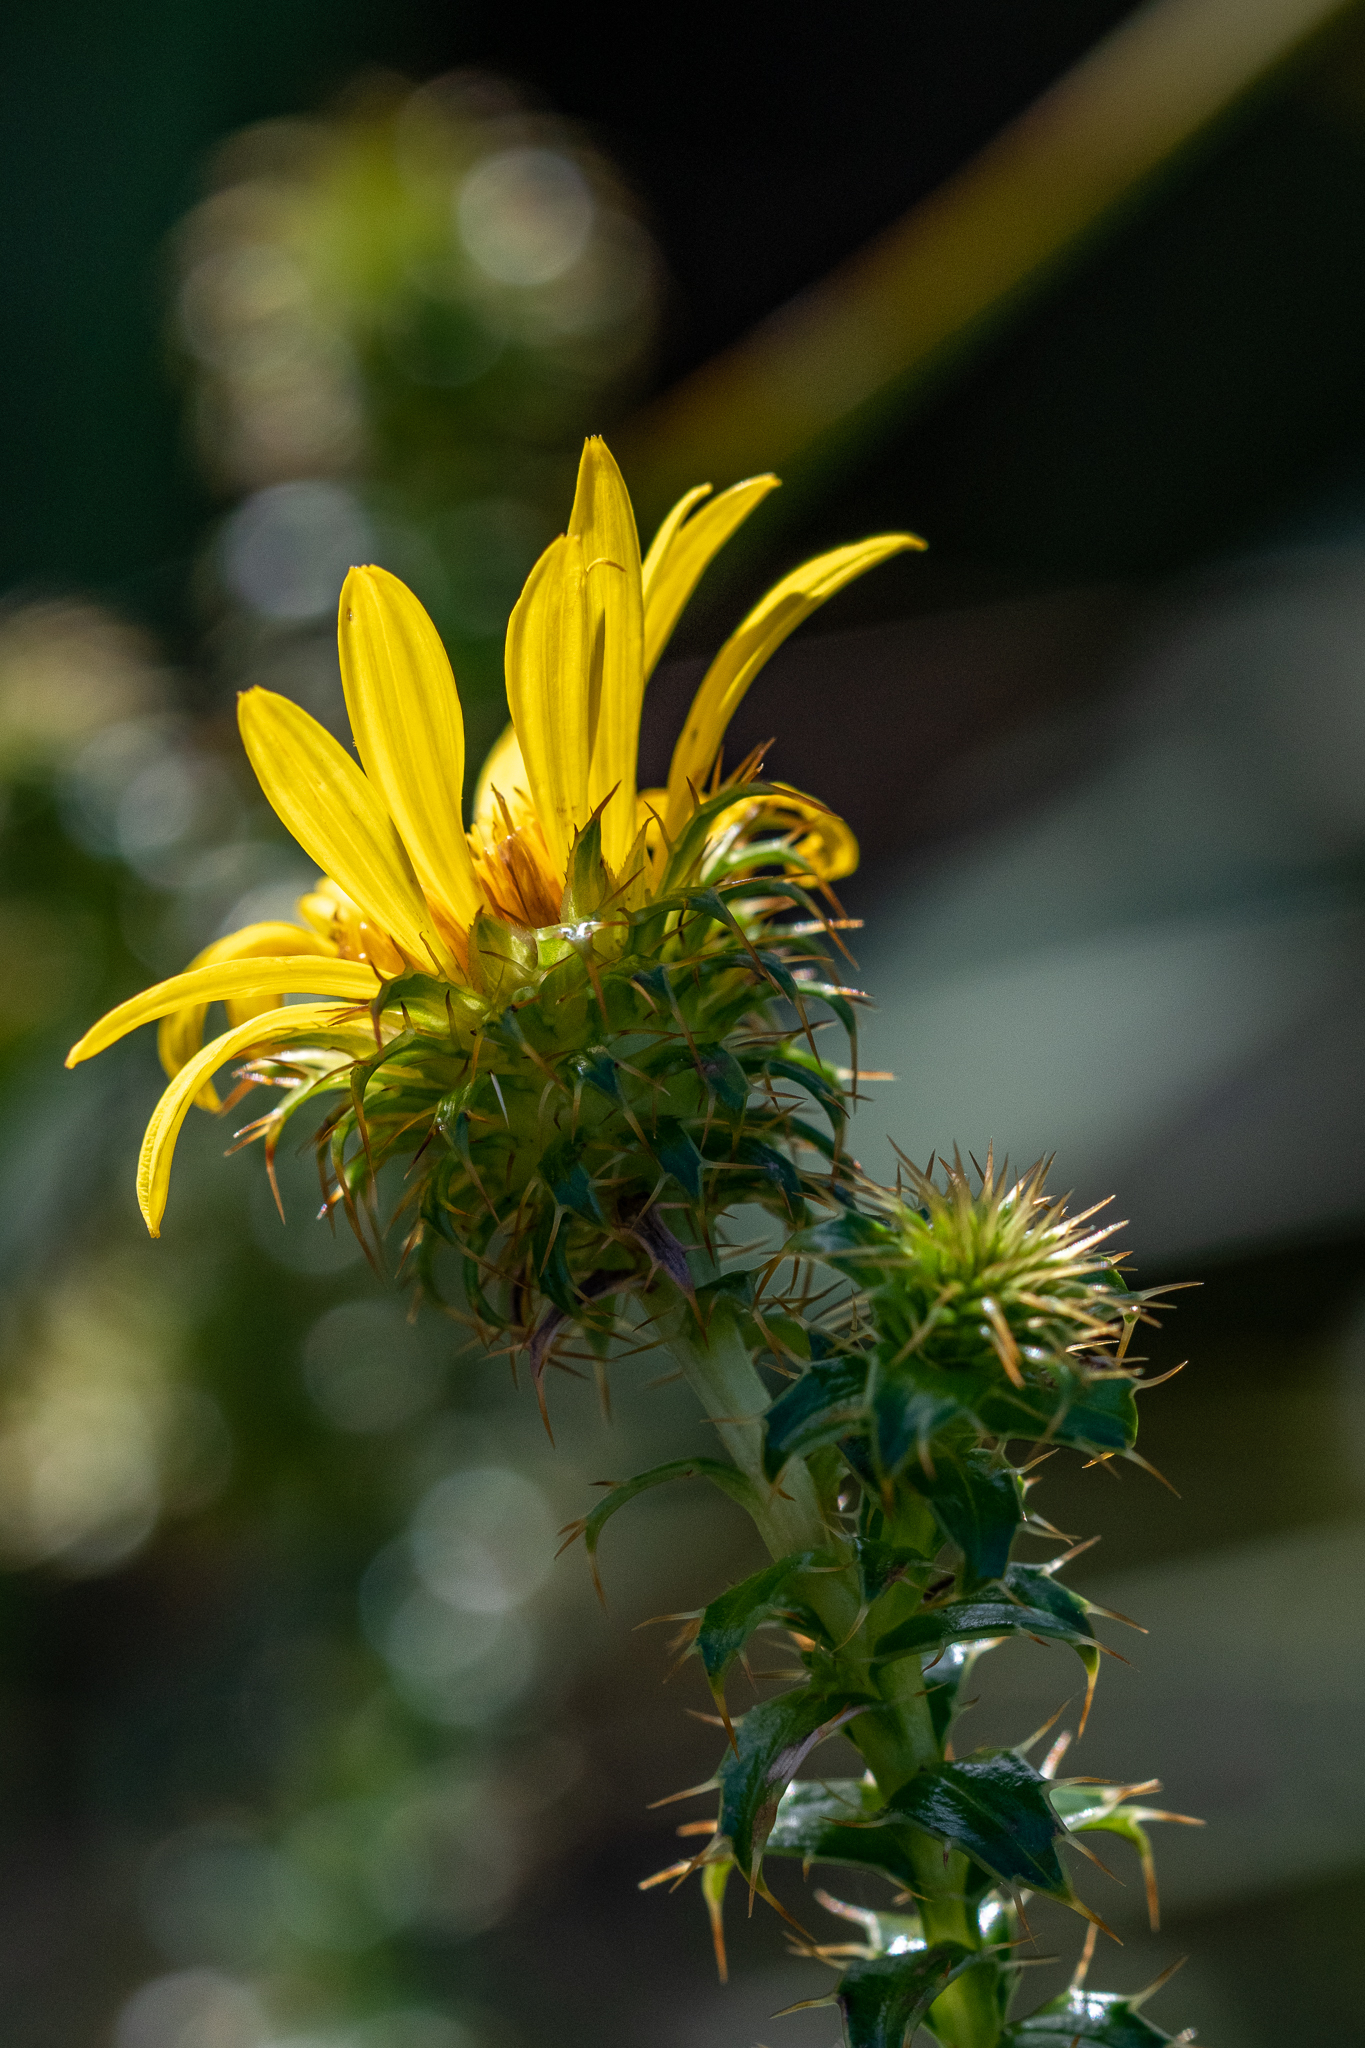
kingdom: Plantae
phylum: Tracheophyta
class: Magnoliopsida
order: Asterales
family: Asteraceae
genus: Cullumia
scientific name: Cullumia setosa
